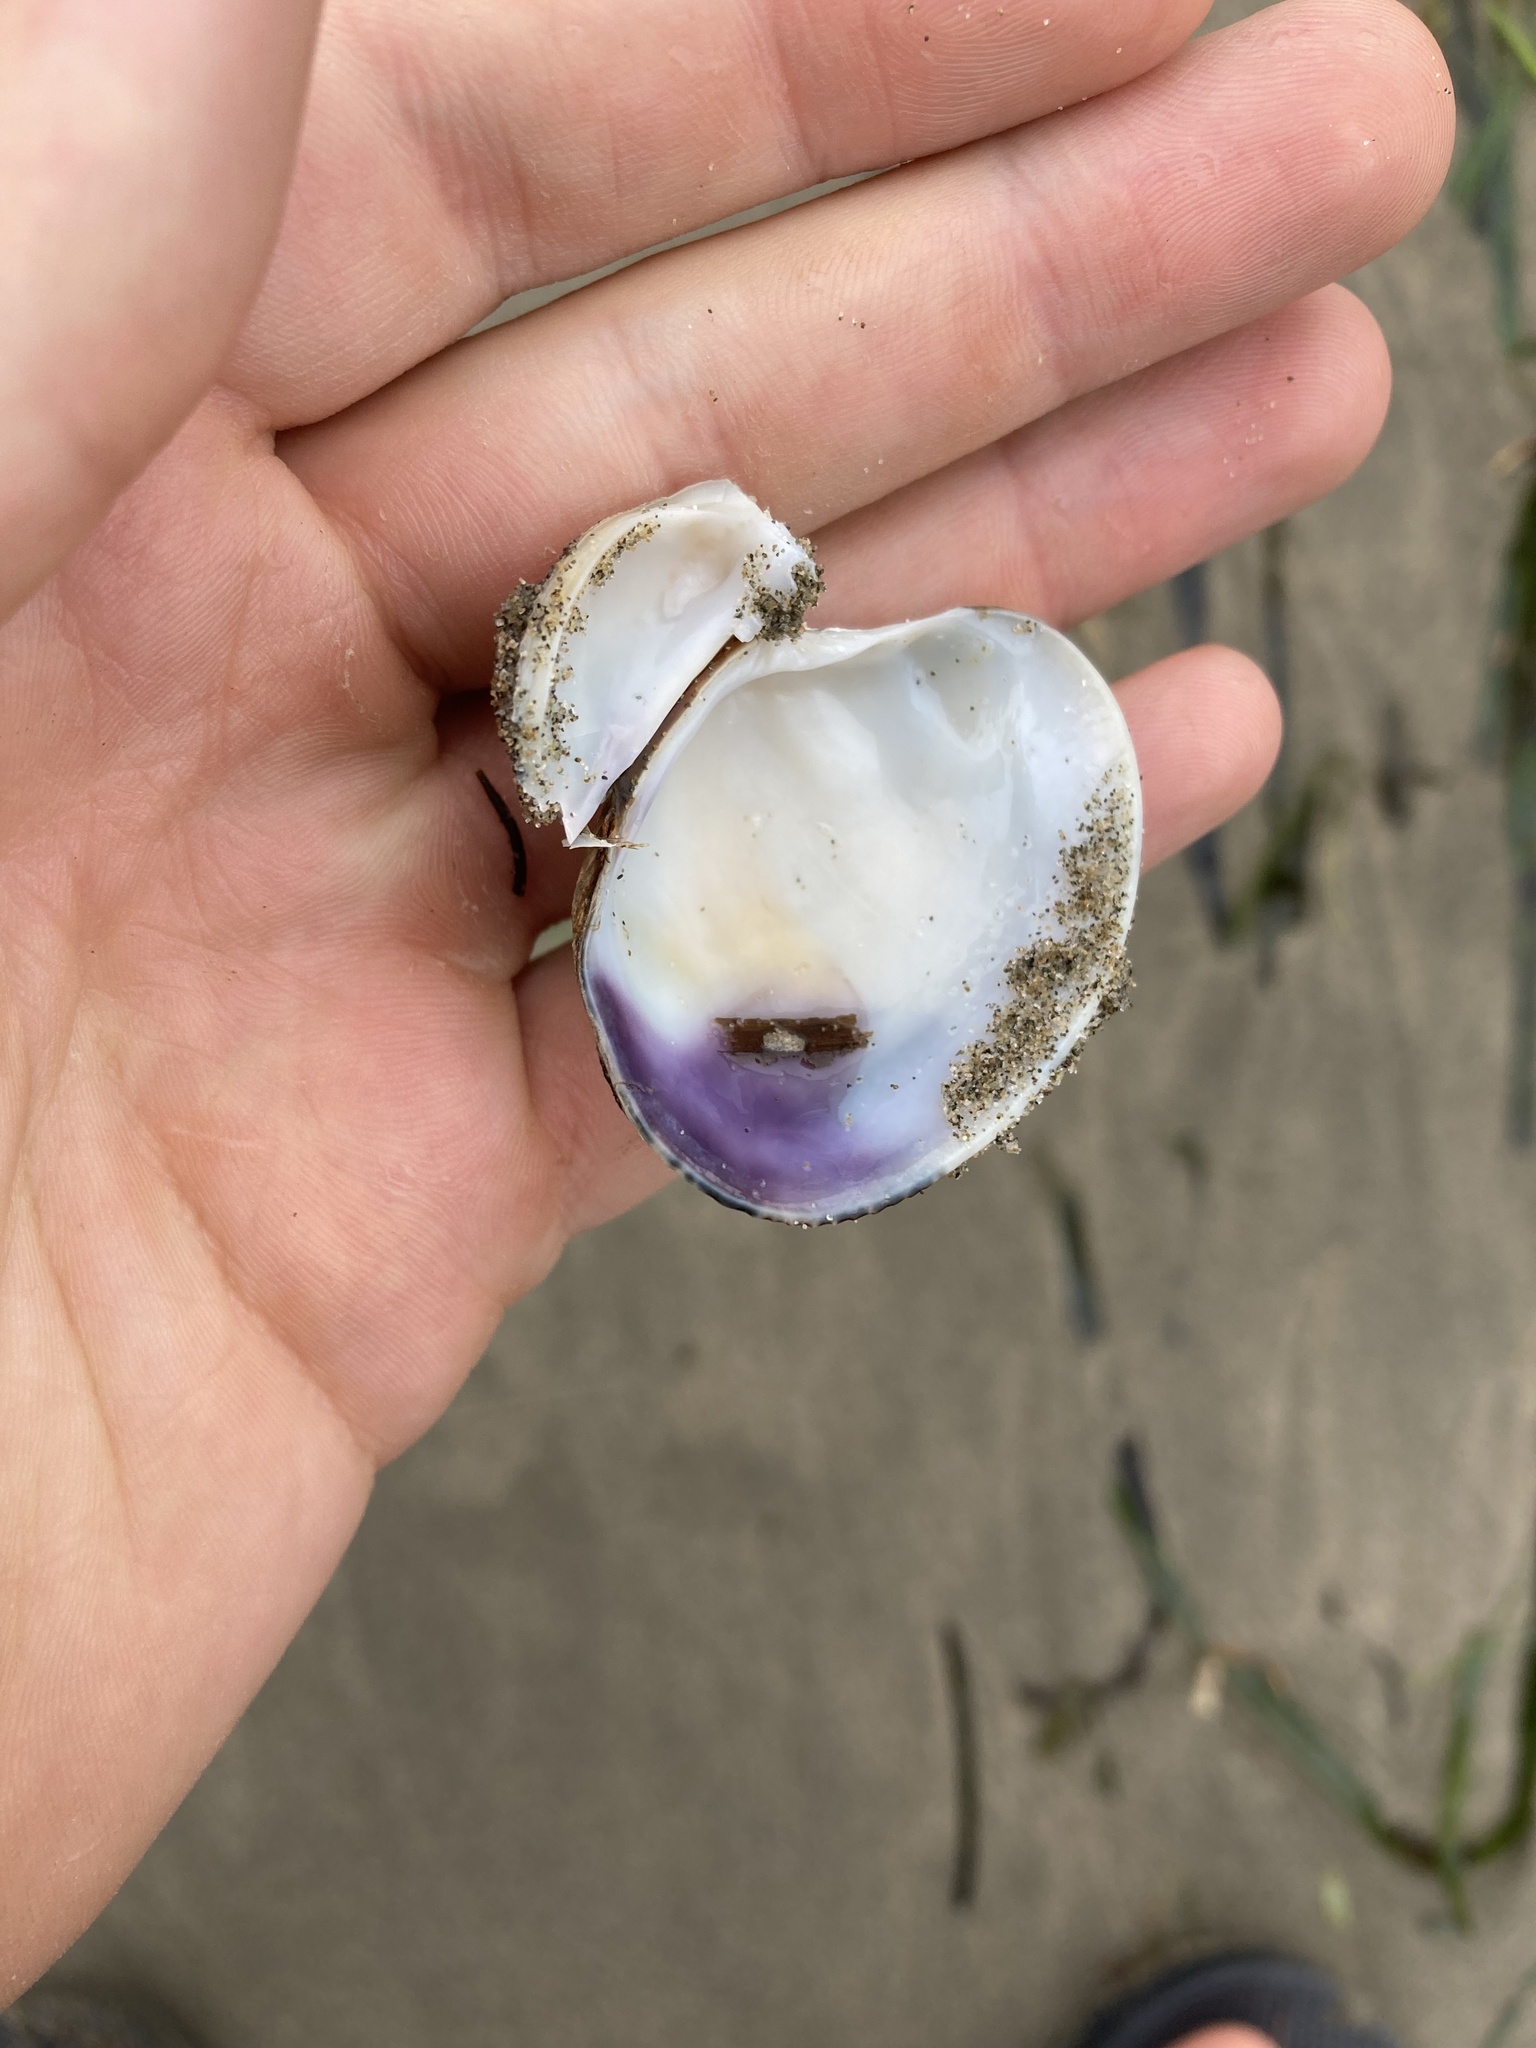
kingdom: Animalia
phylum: Mollusca
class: Bivalvia
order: Venerida
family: Veneridae
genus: Ruditapes
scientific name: Ruditapes philippinarum
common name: Manila clam
